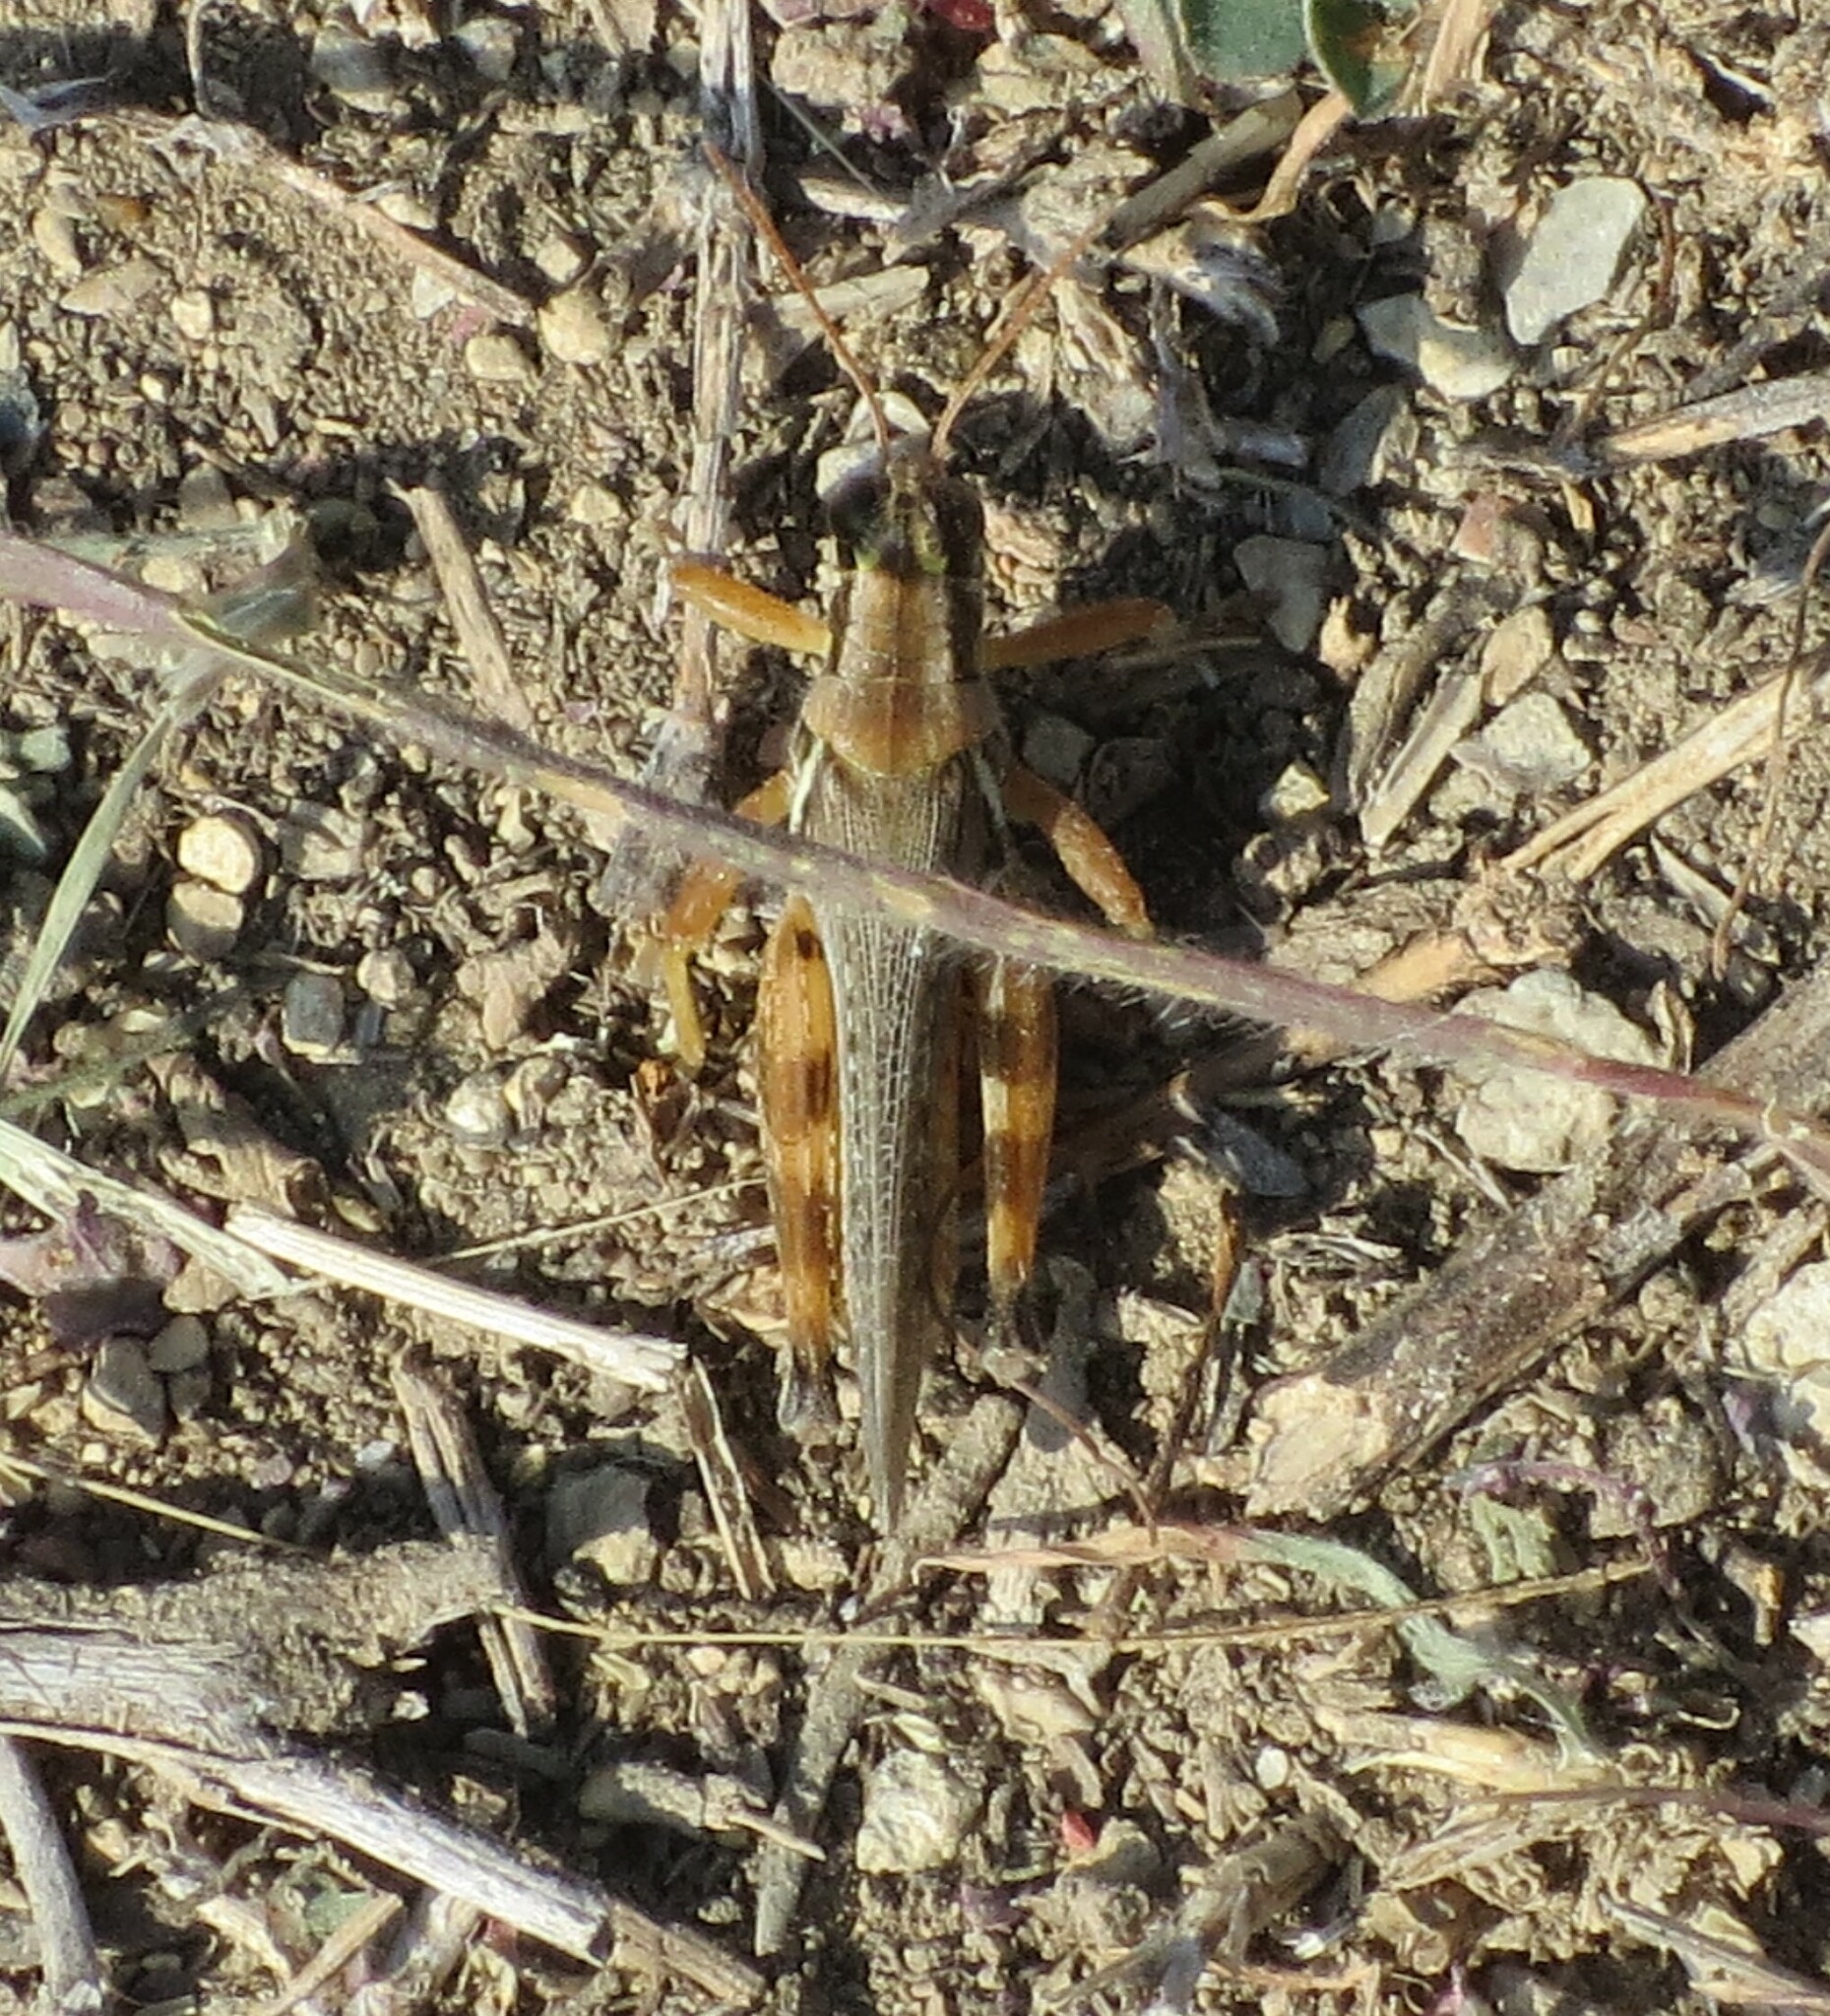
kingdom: Animalia
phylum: Arthropoda
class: Insecta
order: Orthoptera
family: Acrididae
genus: Melanoplus
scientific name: Melanoplus tuberculatus
